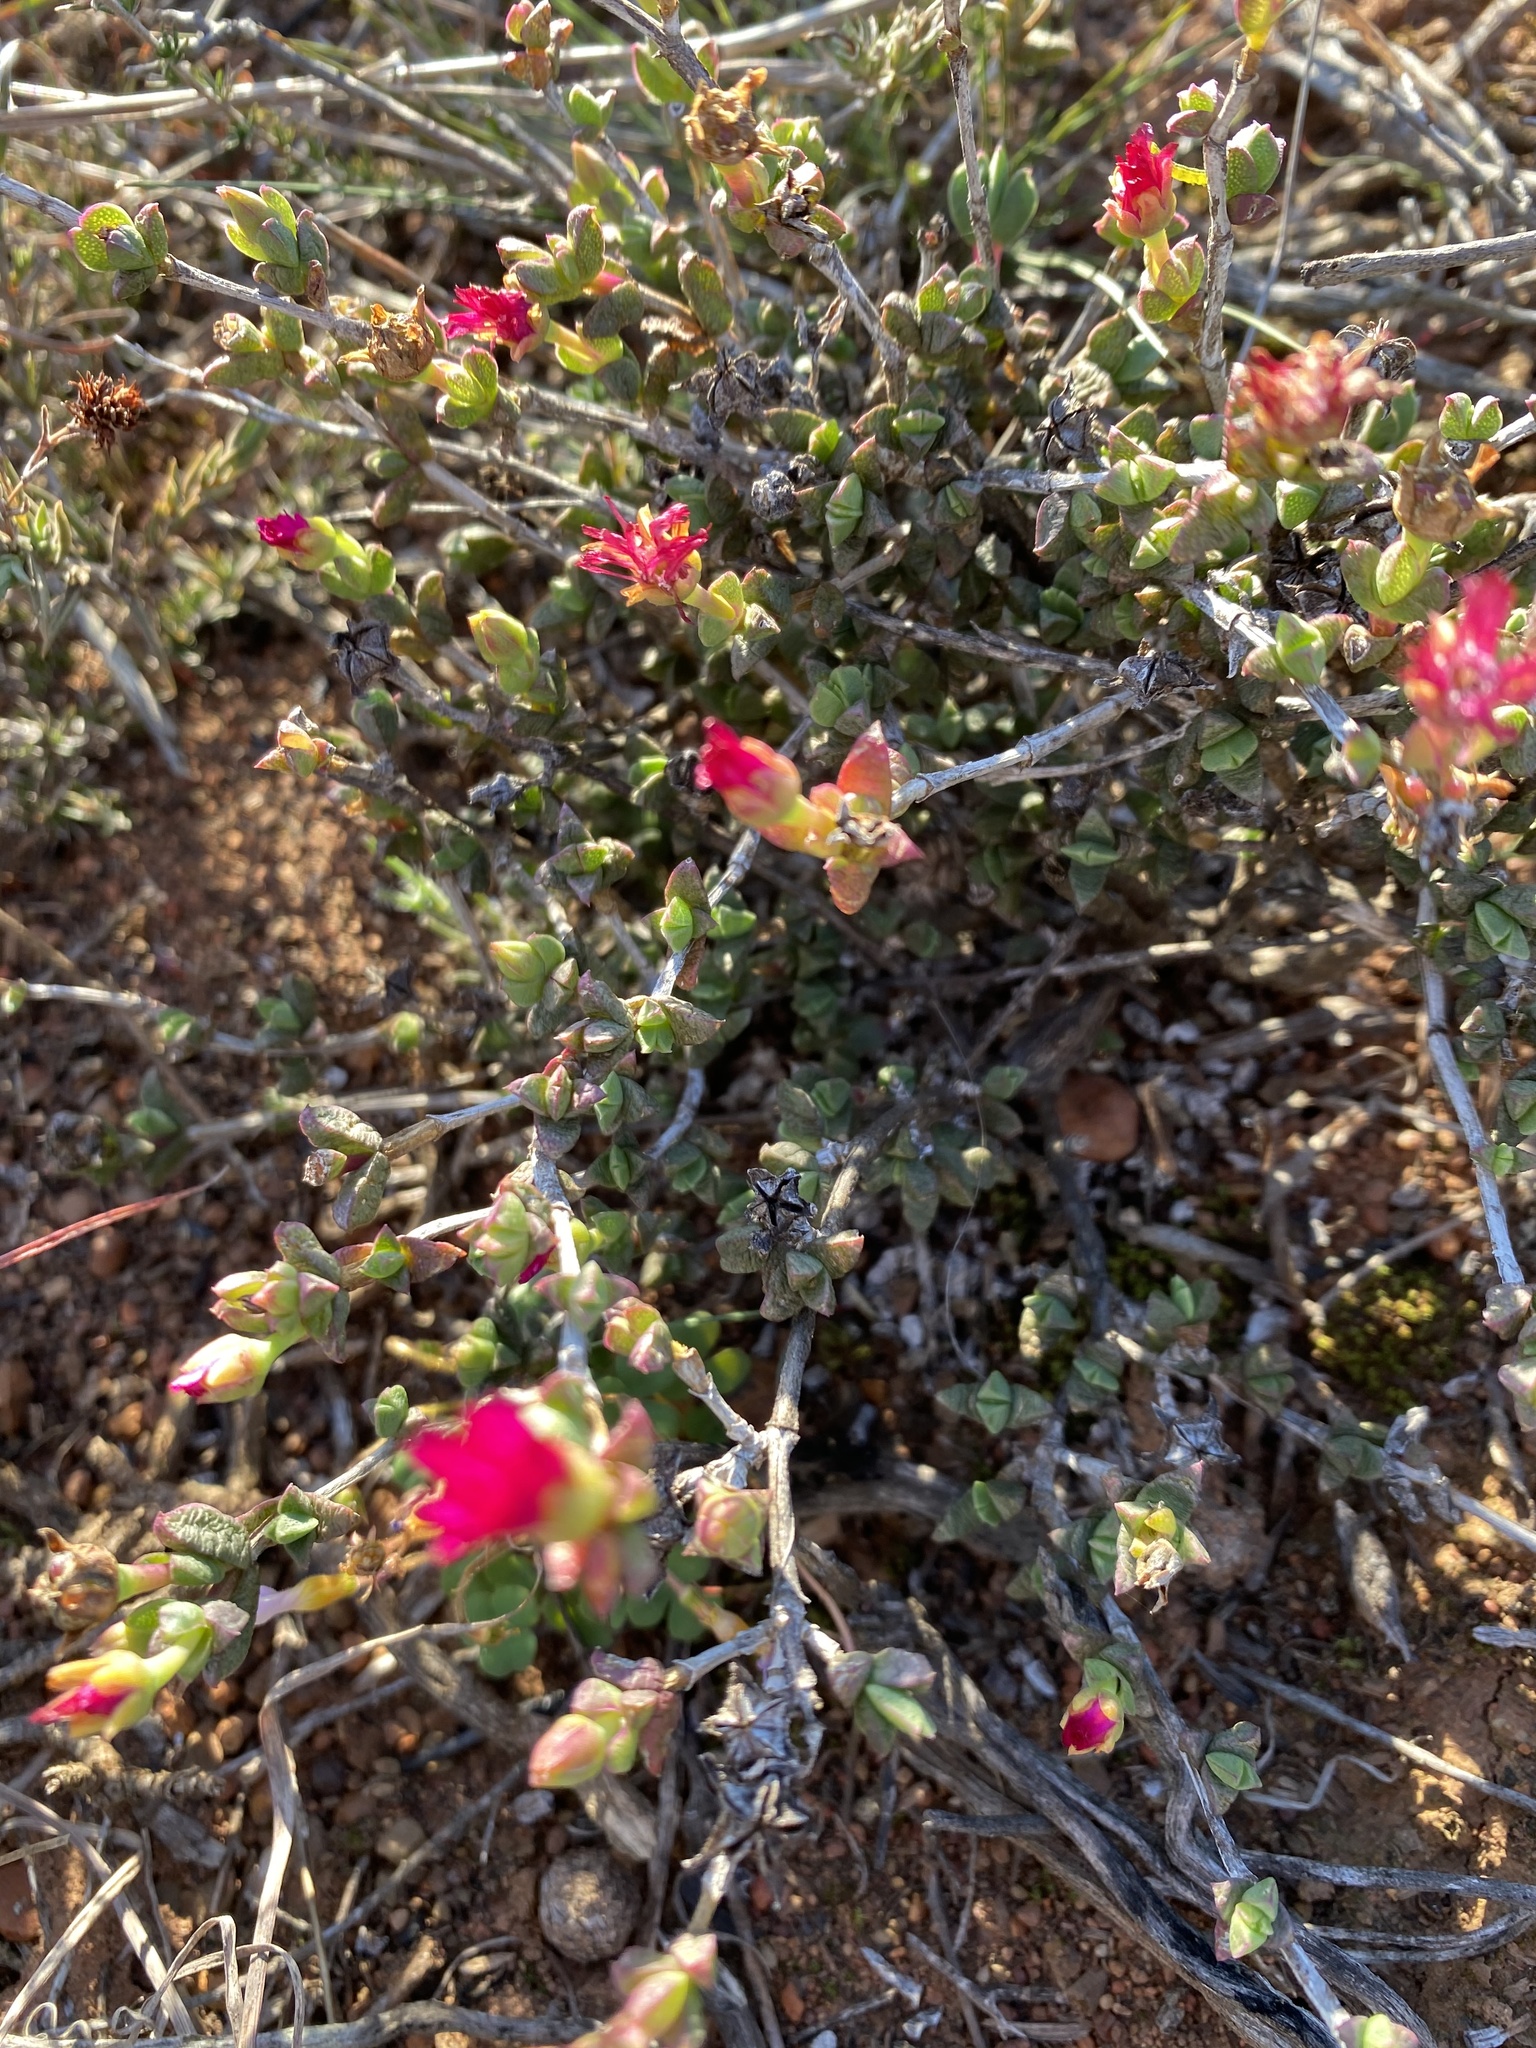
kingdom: Plantae
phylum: Tracheophyta
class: Magnoliopsida
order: Caryophyllales
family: Aizoaceae
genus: Ruschia
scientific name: Ruschia leptocalyx
